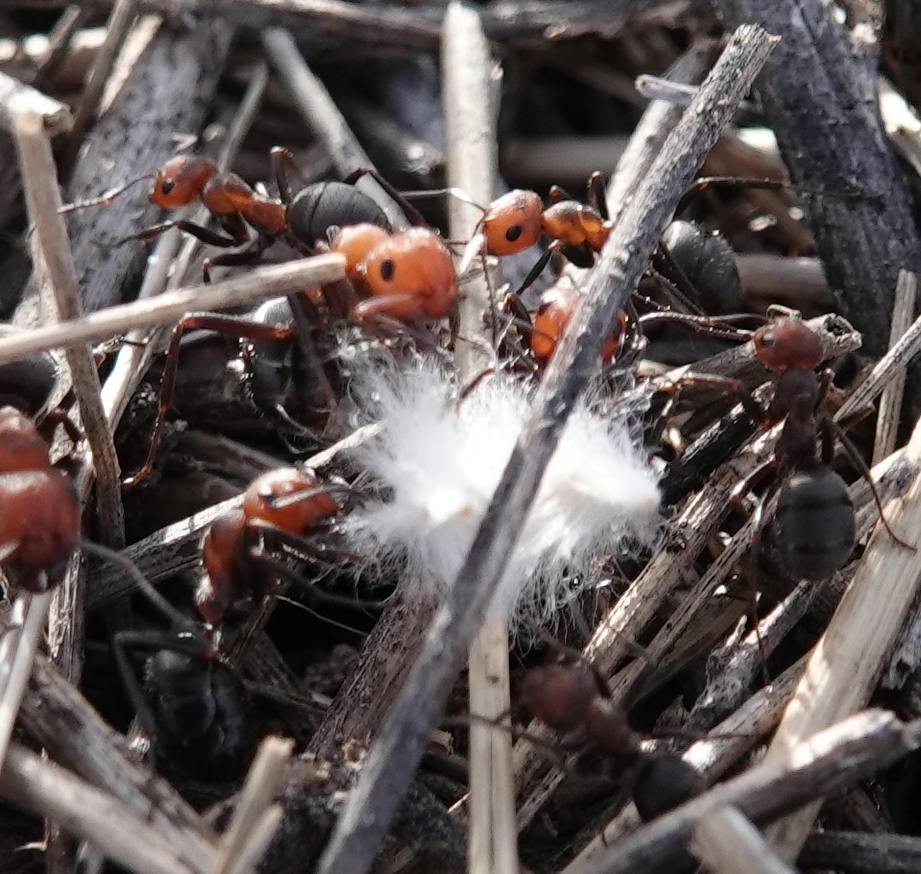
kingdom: Animalia
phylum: Arthropoda
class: Insecta
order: Hymenoptera
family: Formicidae
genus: Formica
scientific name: Formica obscuripes
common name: Western thatching ant
